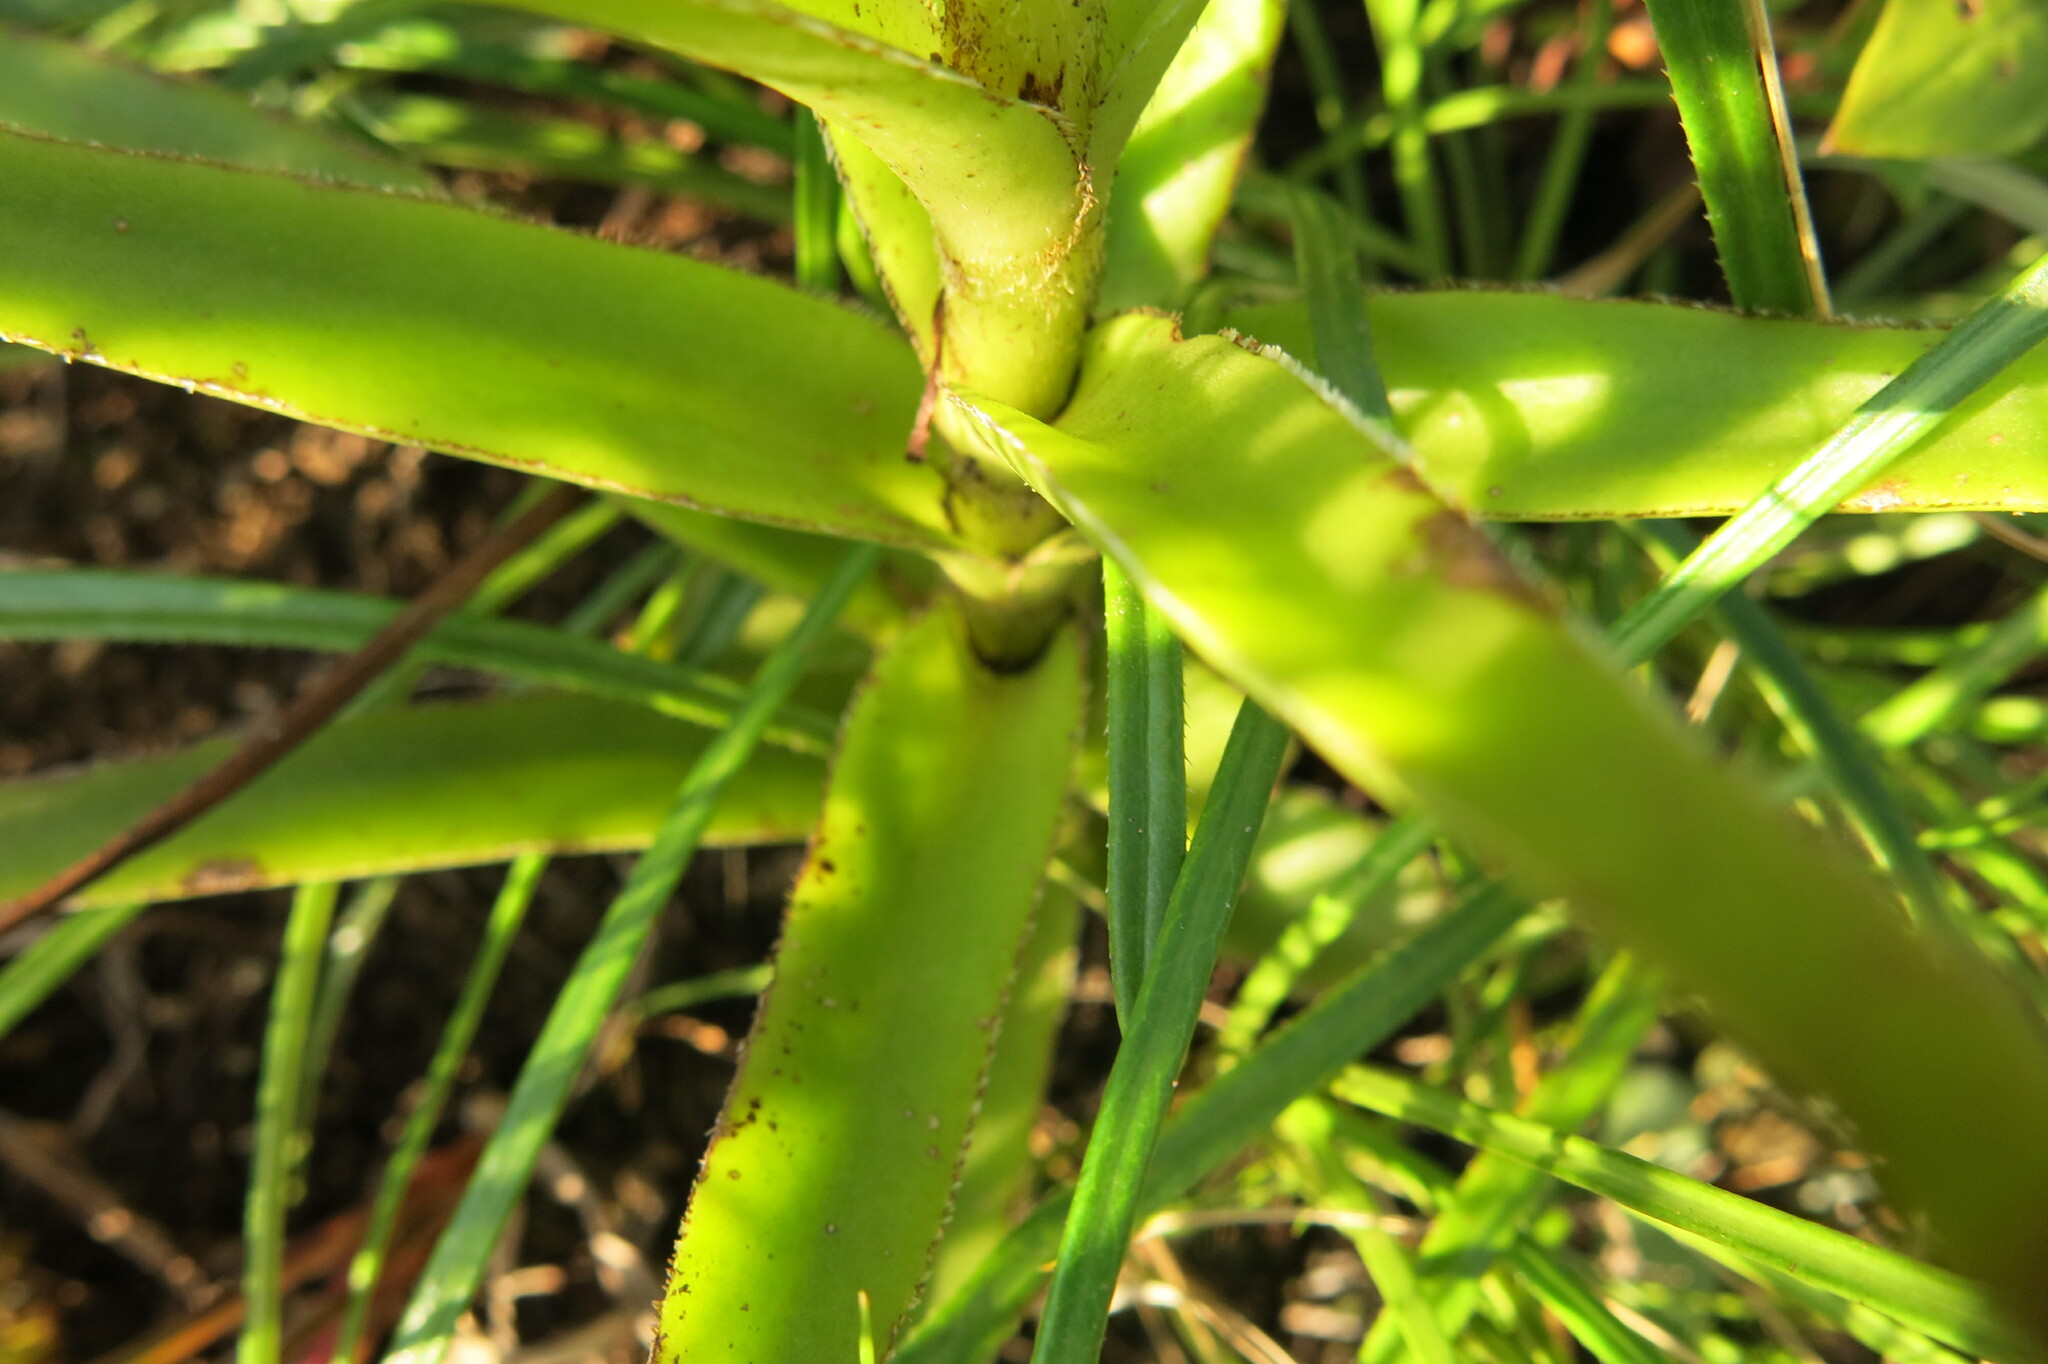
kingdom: Plantae
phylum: Tracheophyta
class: Magnoliopsida
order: Saxifragales
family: Crassulaceae
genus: Crassula
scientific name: Crassula alba
